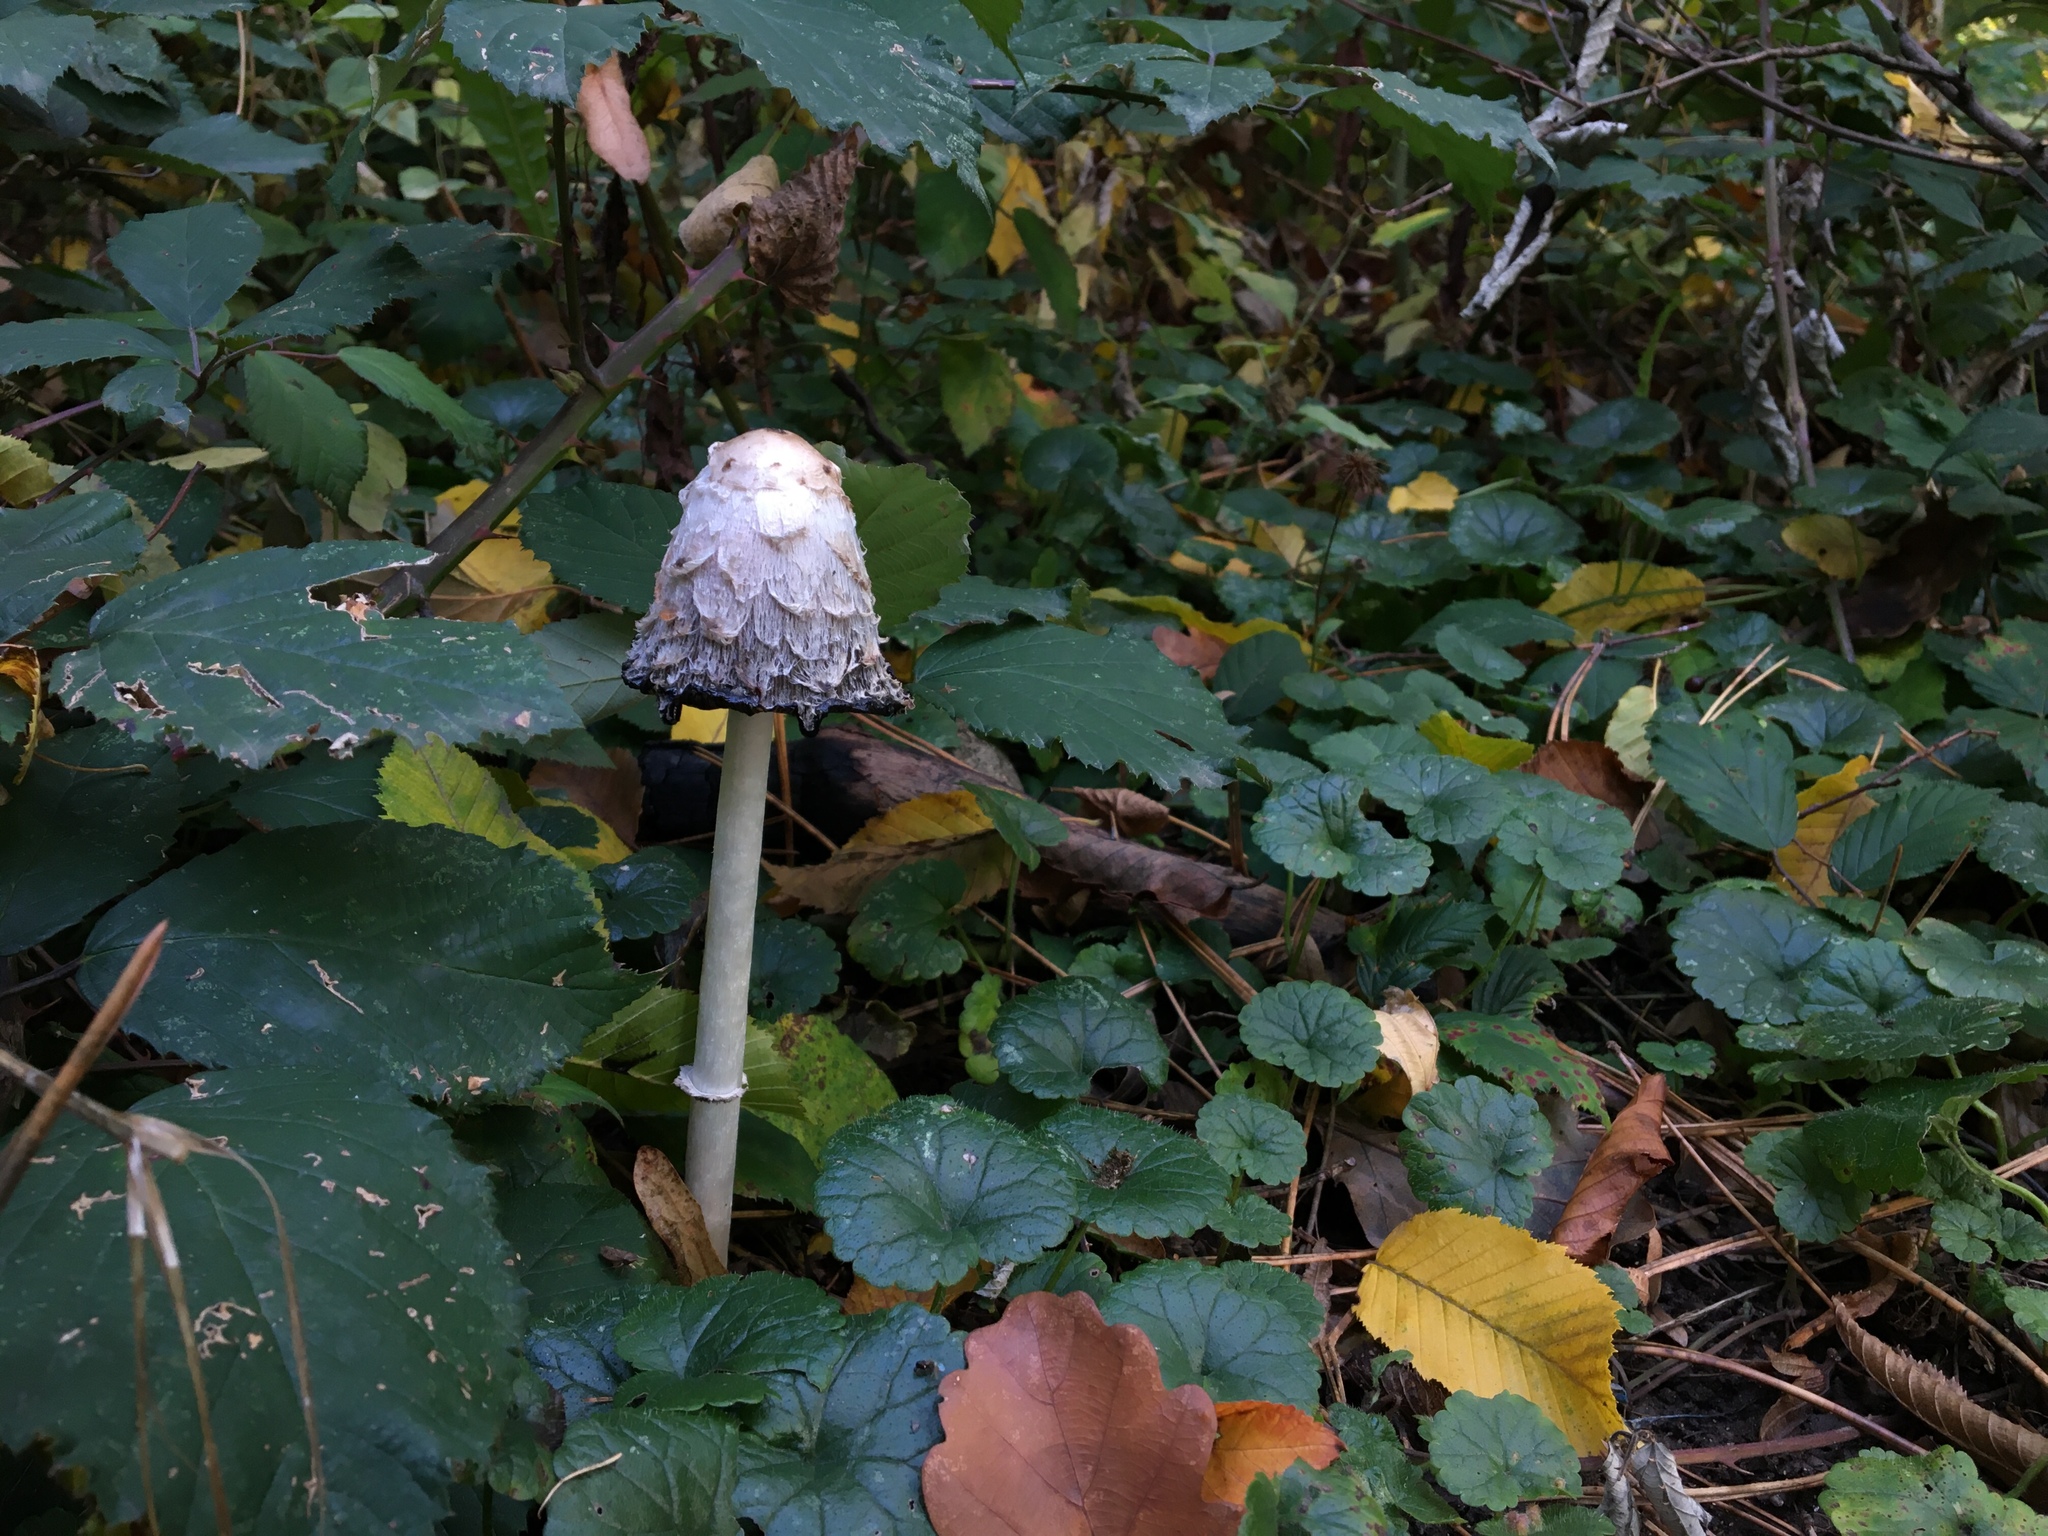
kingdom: Fungi
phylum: Basidiomycota
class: Agaricomycetes
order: Agaricales
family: Agaricaceae
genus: Coprinus
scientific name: Coprinus comatus
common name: Lawyer's wig
